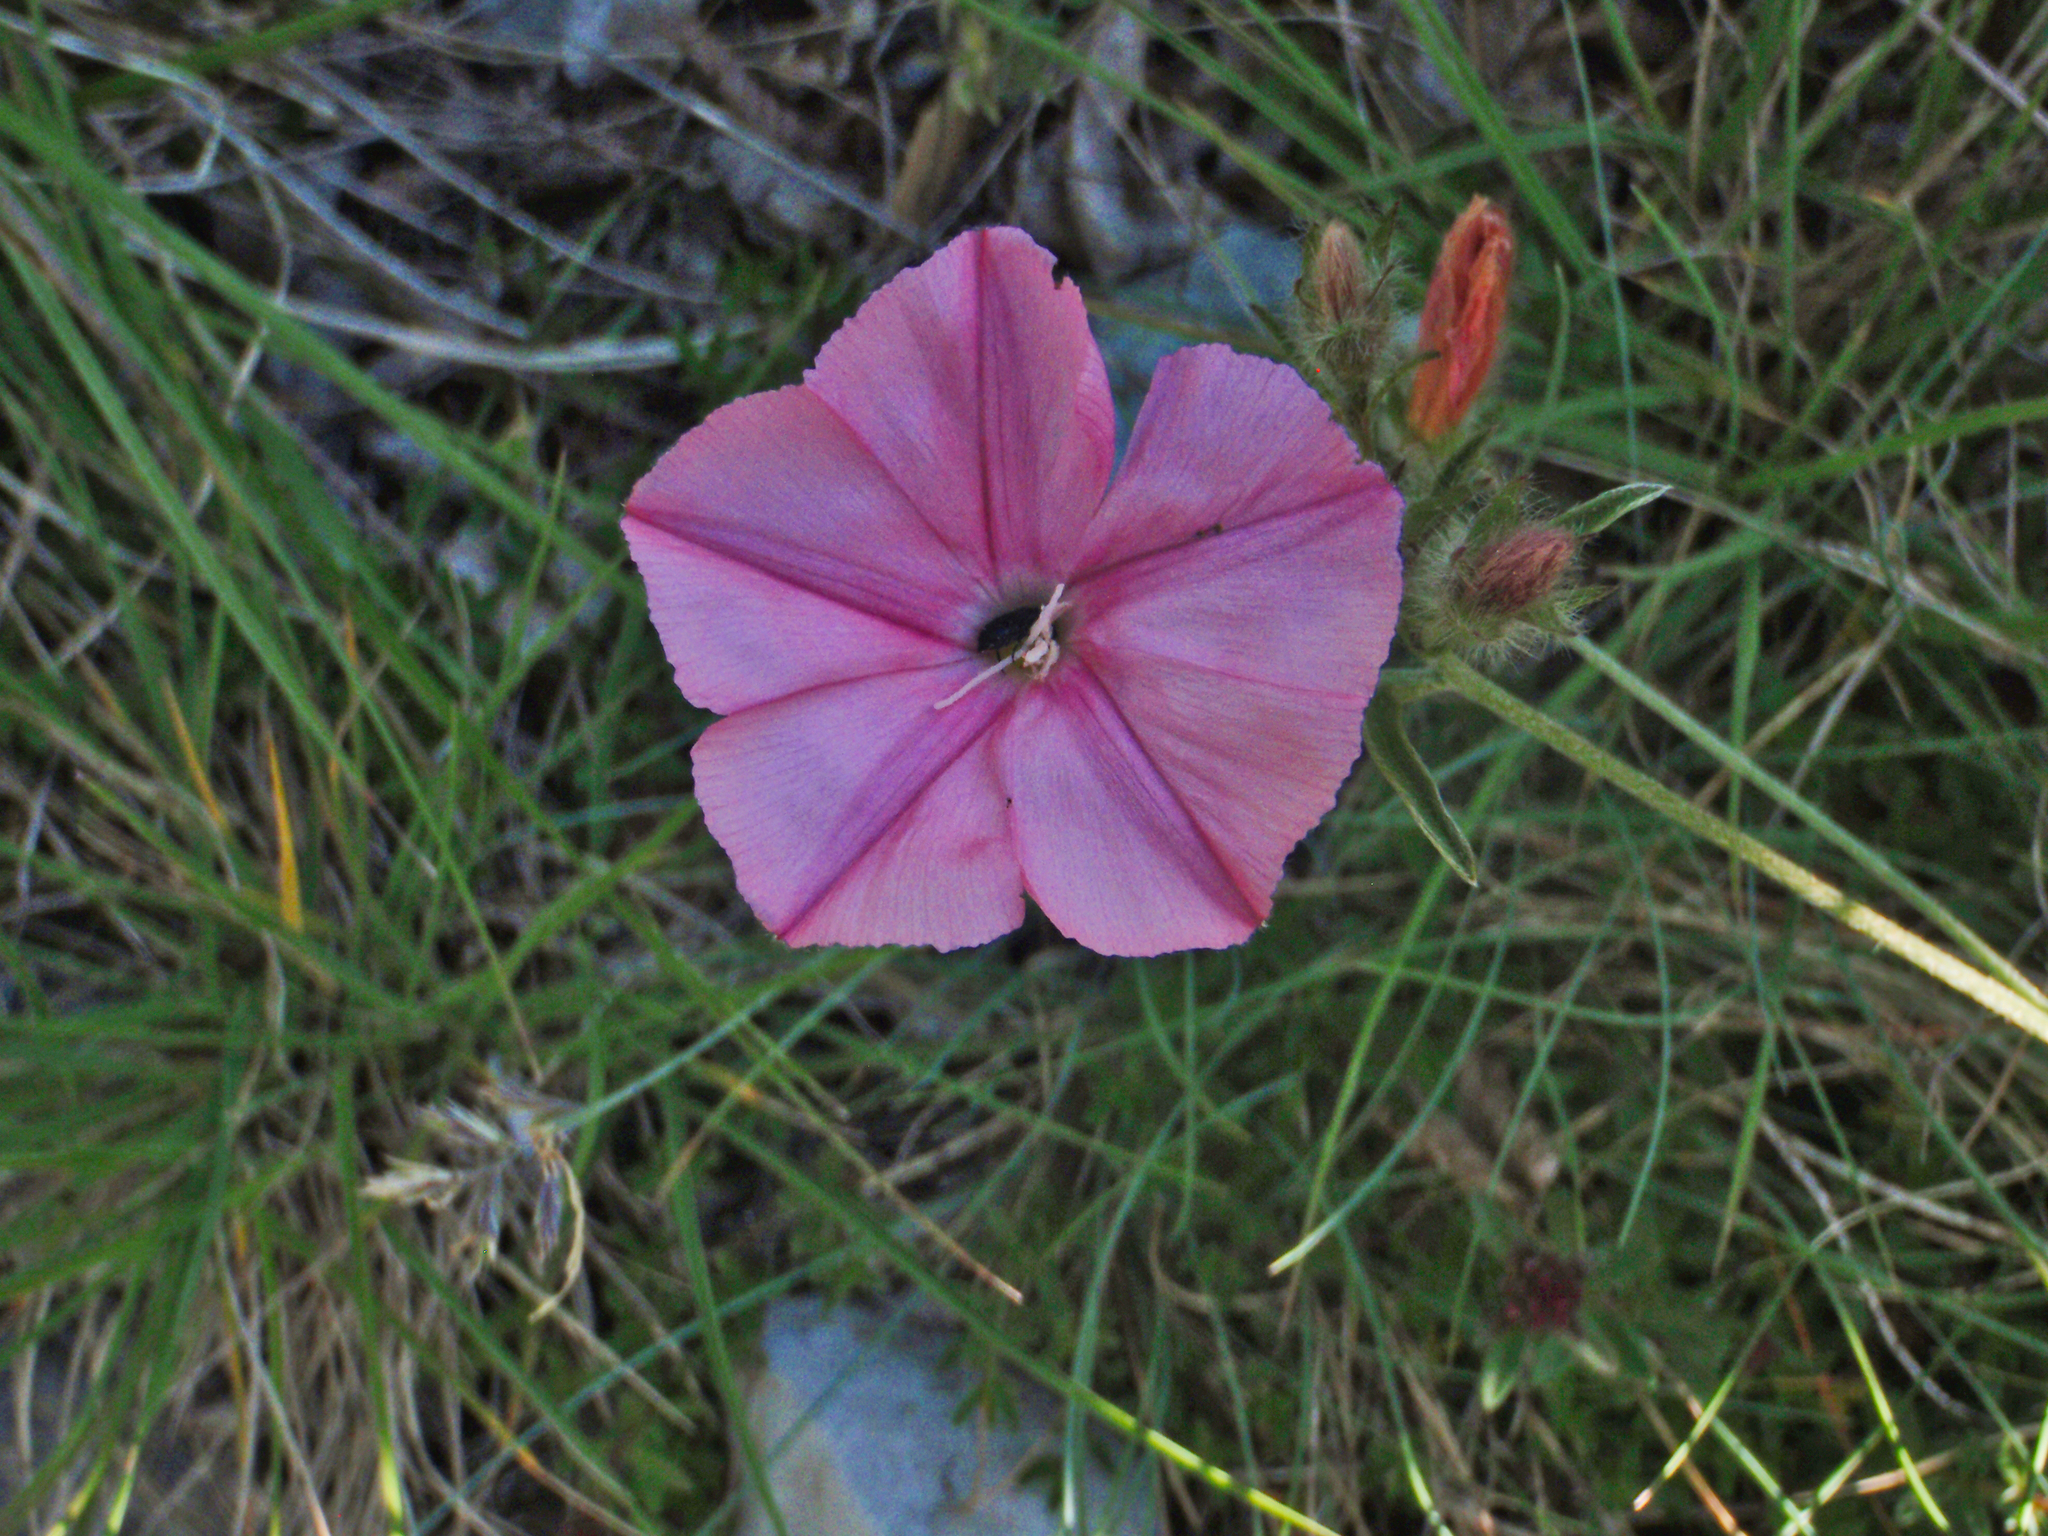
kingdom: Plantae
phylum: Tracheophyta
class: Magnoliopsida
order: Solanales
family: Convolvulaceae
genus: Convolvulus
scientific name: Convolvulus cantabrica
